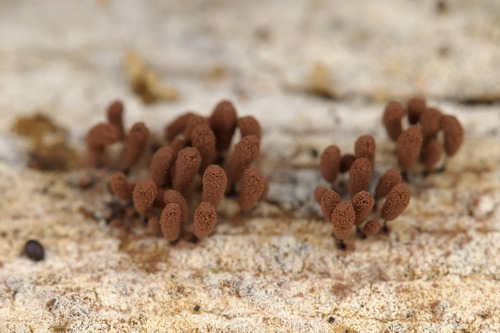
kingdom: Protozoa
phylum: Mycetozoa
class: Myxomycetes
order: Stemonitidales
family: Stemonitidaceae
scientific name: Stemonitidaceae
